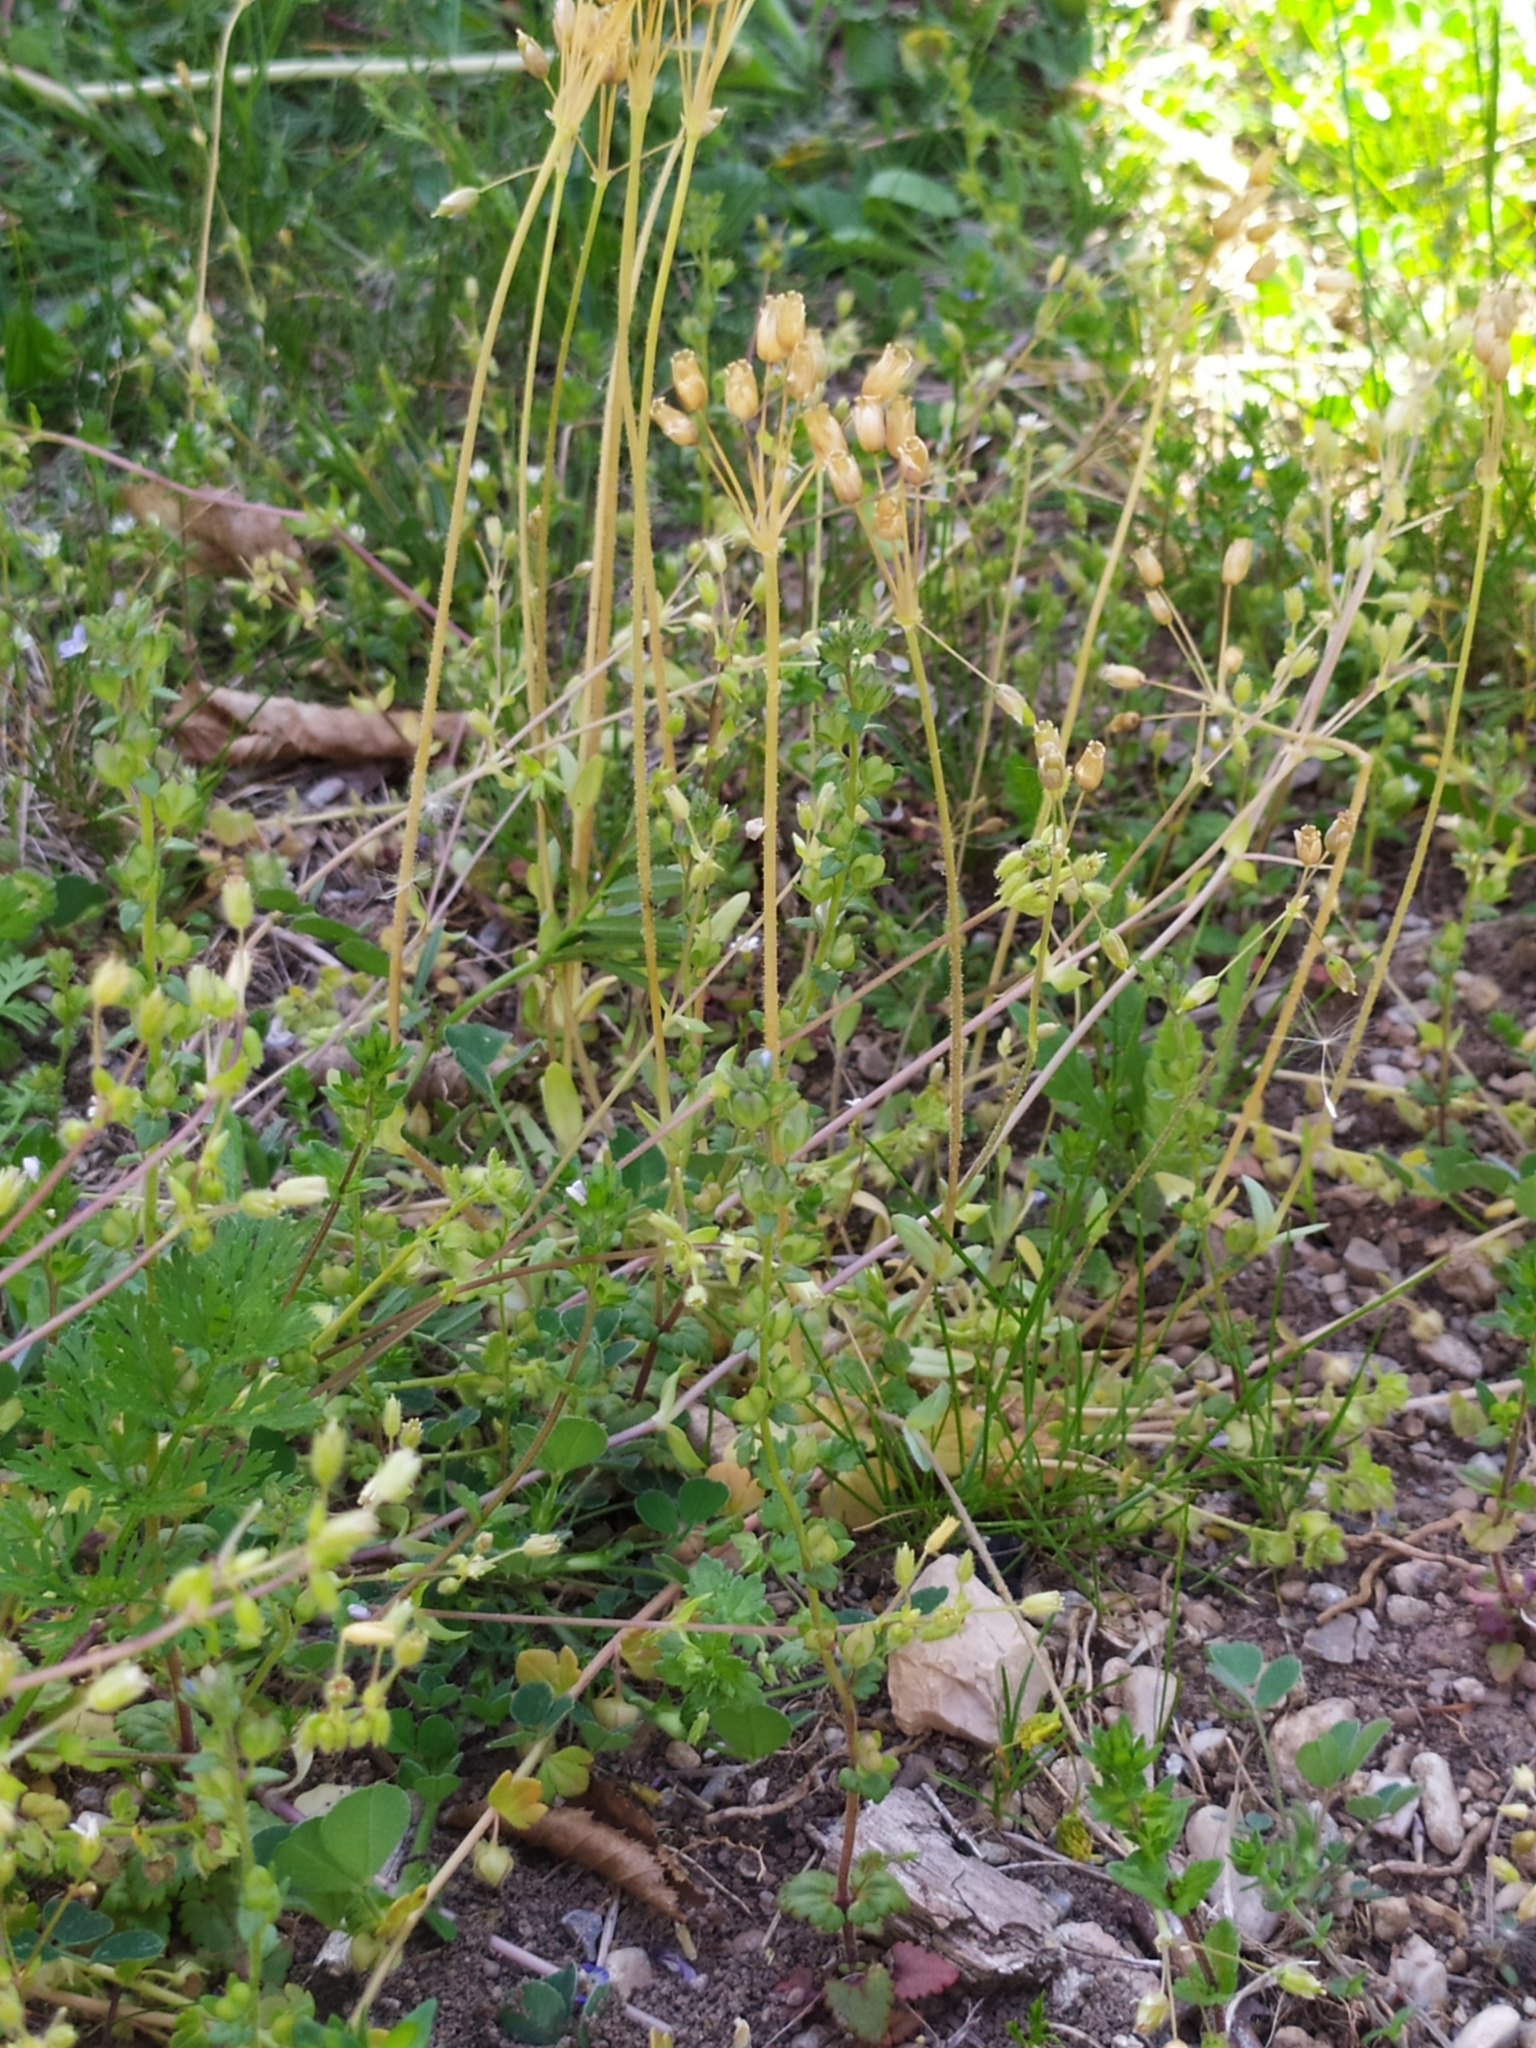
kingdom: Plantae
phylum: Tracheophyta
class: Magnoliopsida
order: Caryophyllales
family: Caryophyllaceae
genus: Holosteum
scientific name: Holosteum umbellatum
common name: Jagged chickweed
